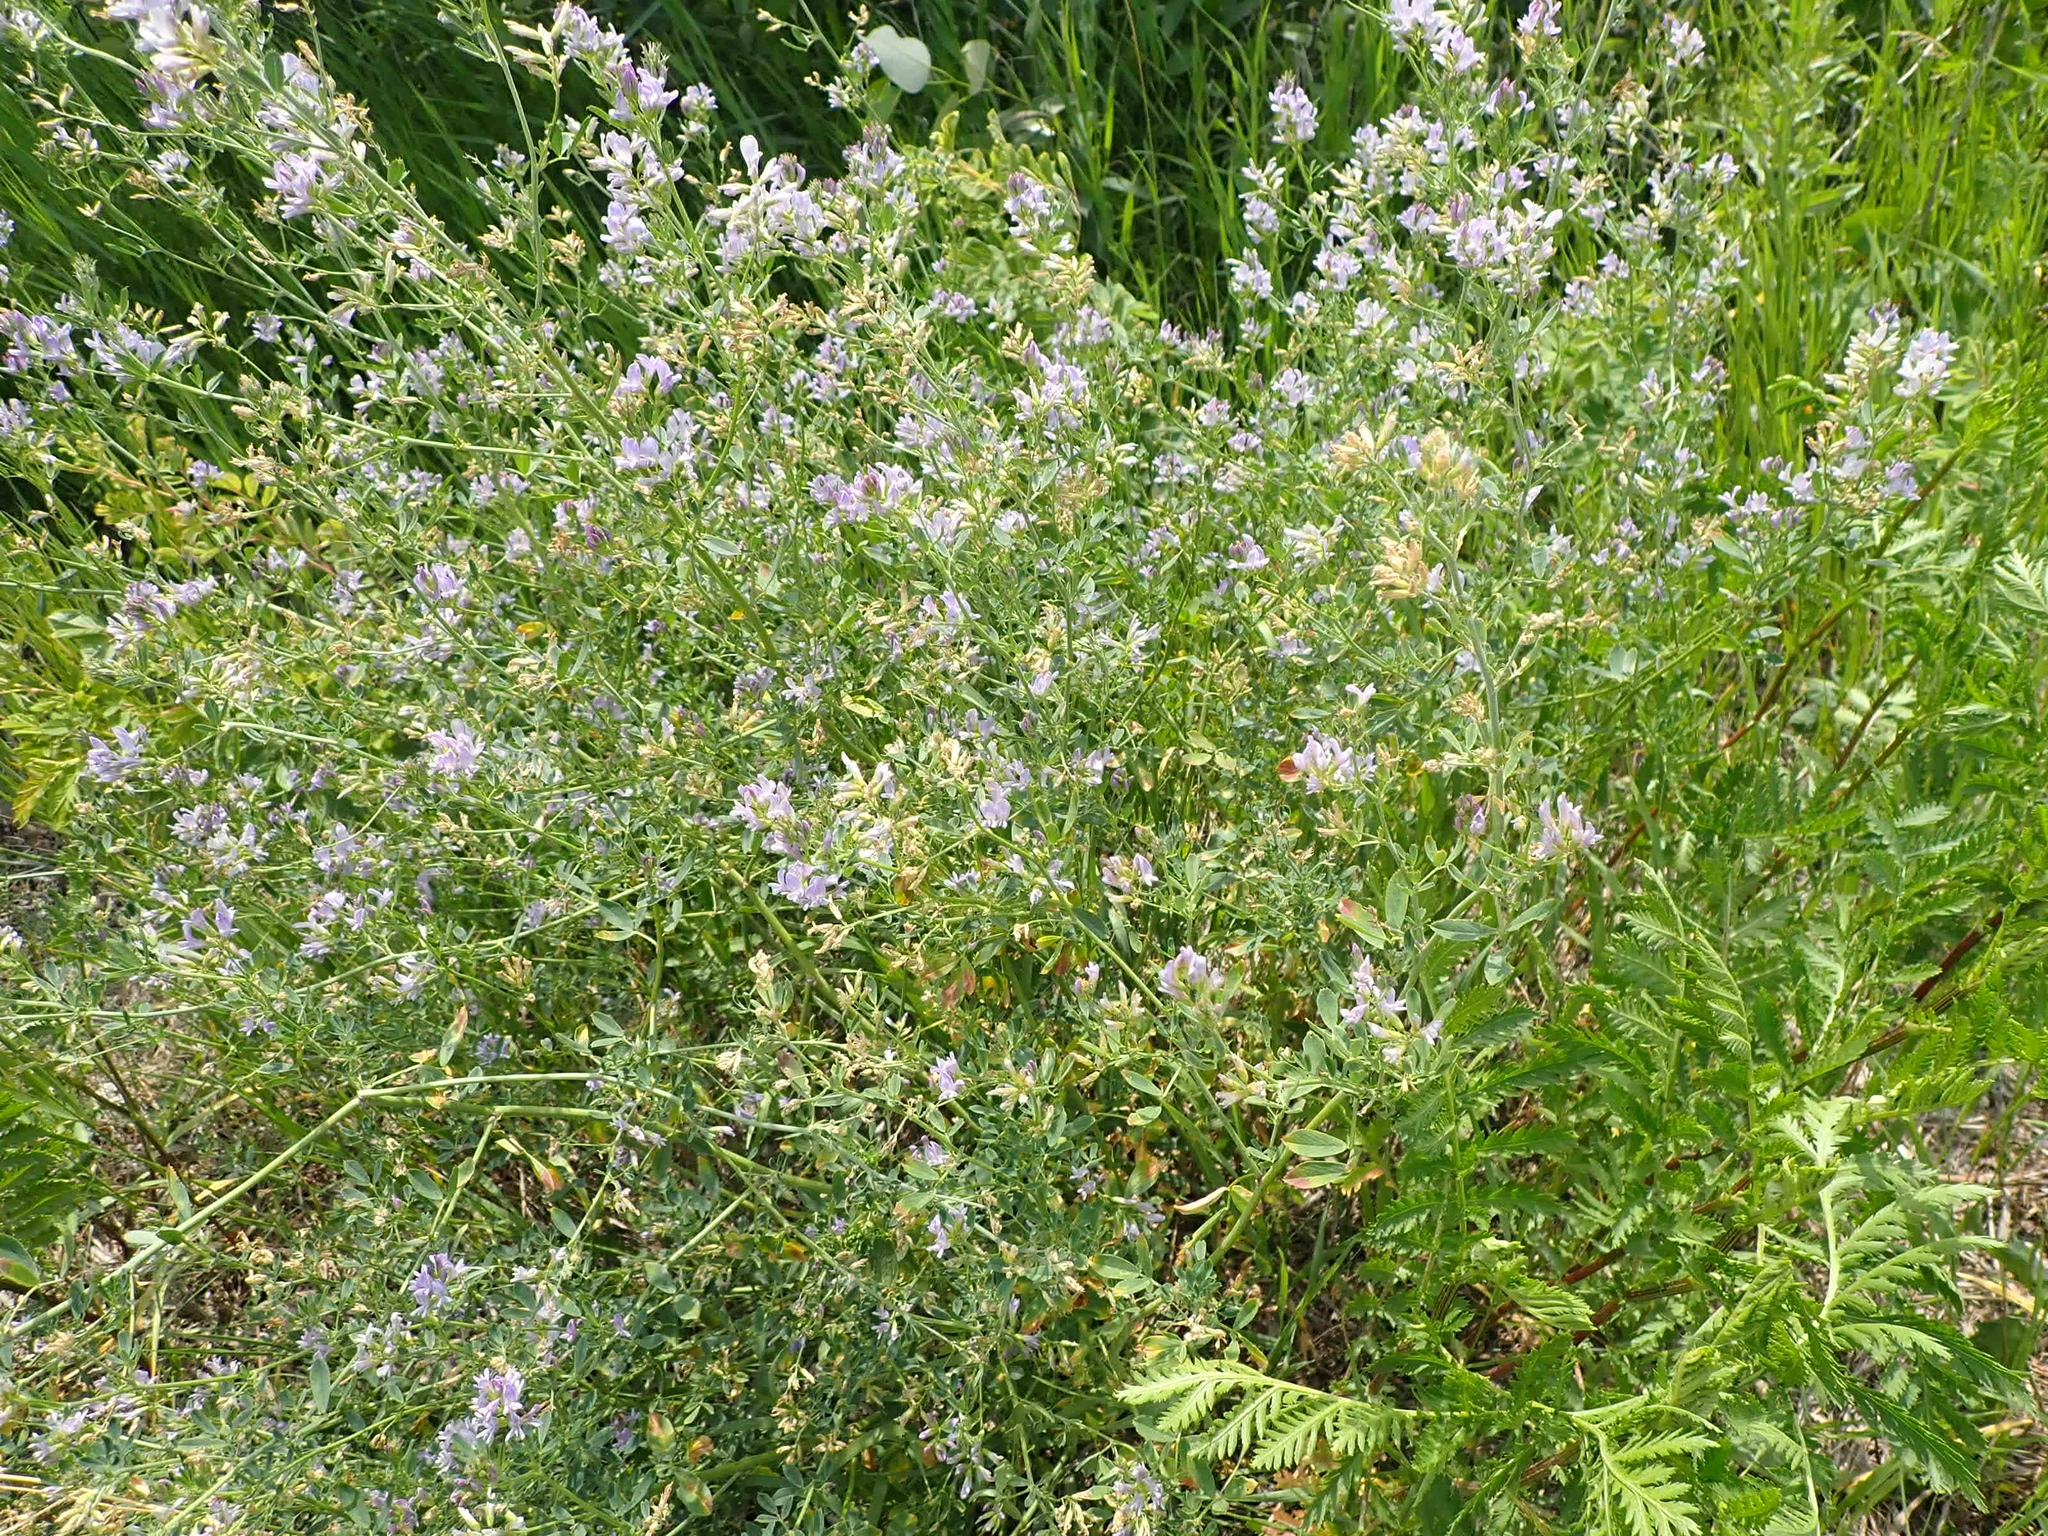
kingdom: Plantae
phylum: Tracheophyta
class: Magnoliopsida
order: Fabales
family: Fabaceae
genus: Medicago
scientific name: Medicago sativa
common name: Alfalfa
